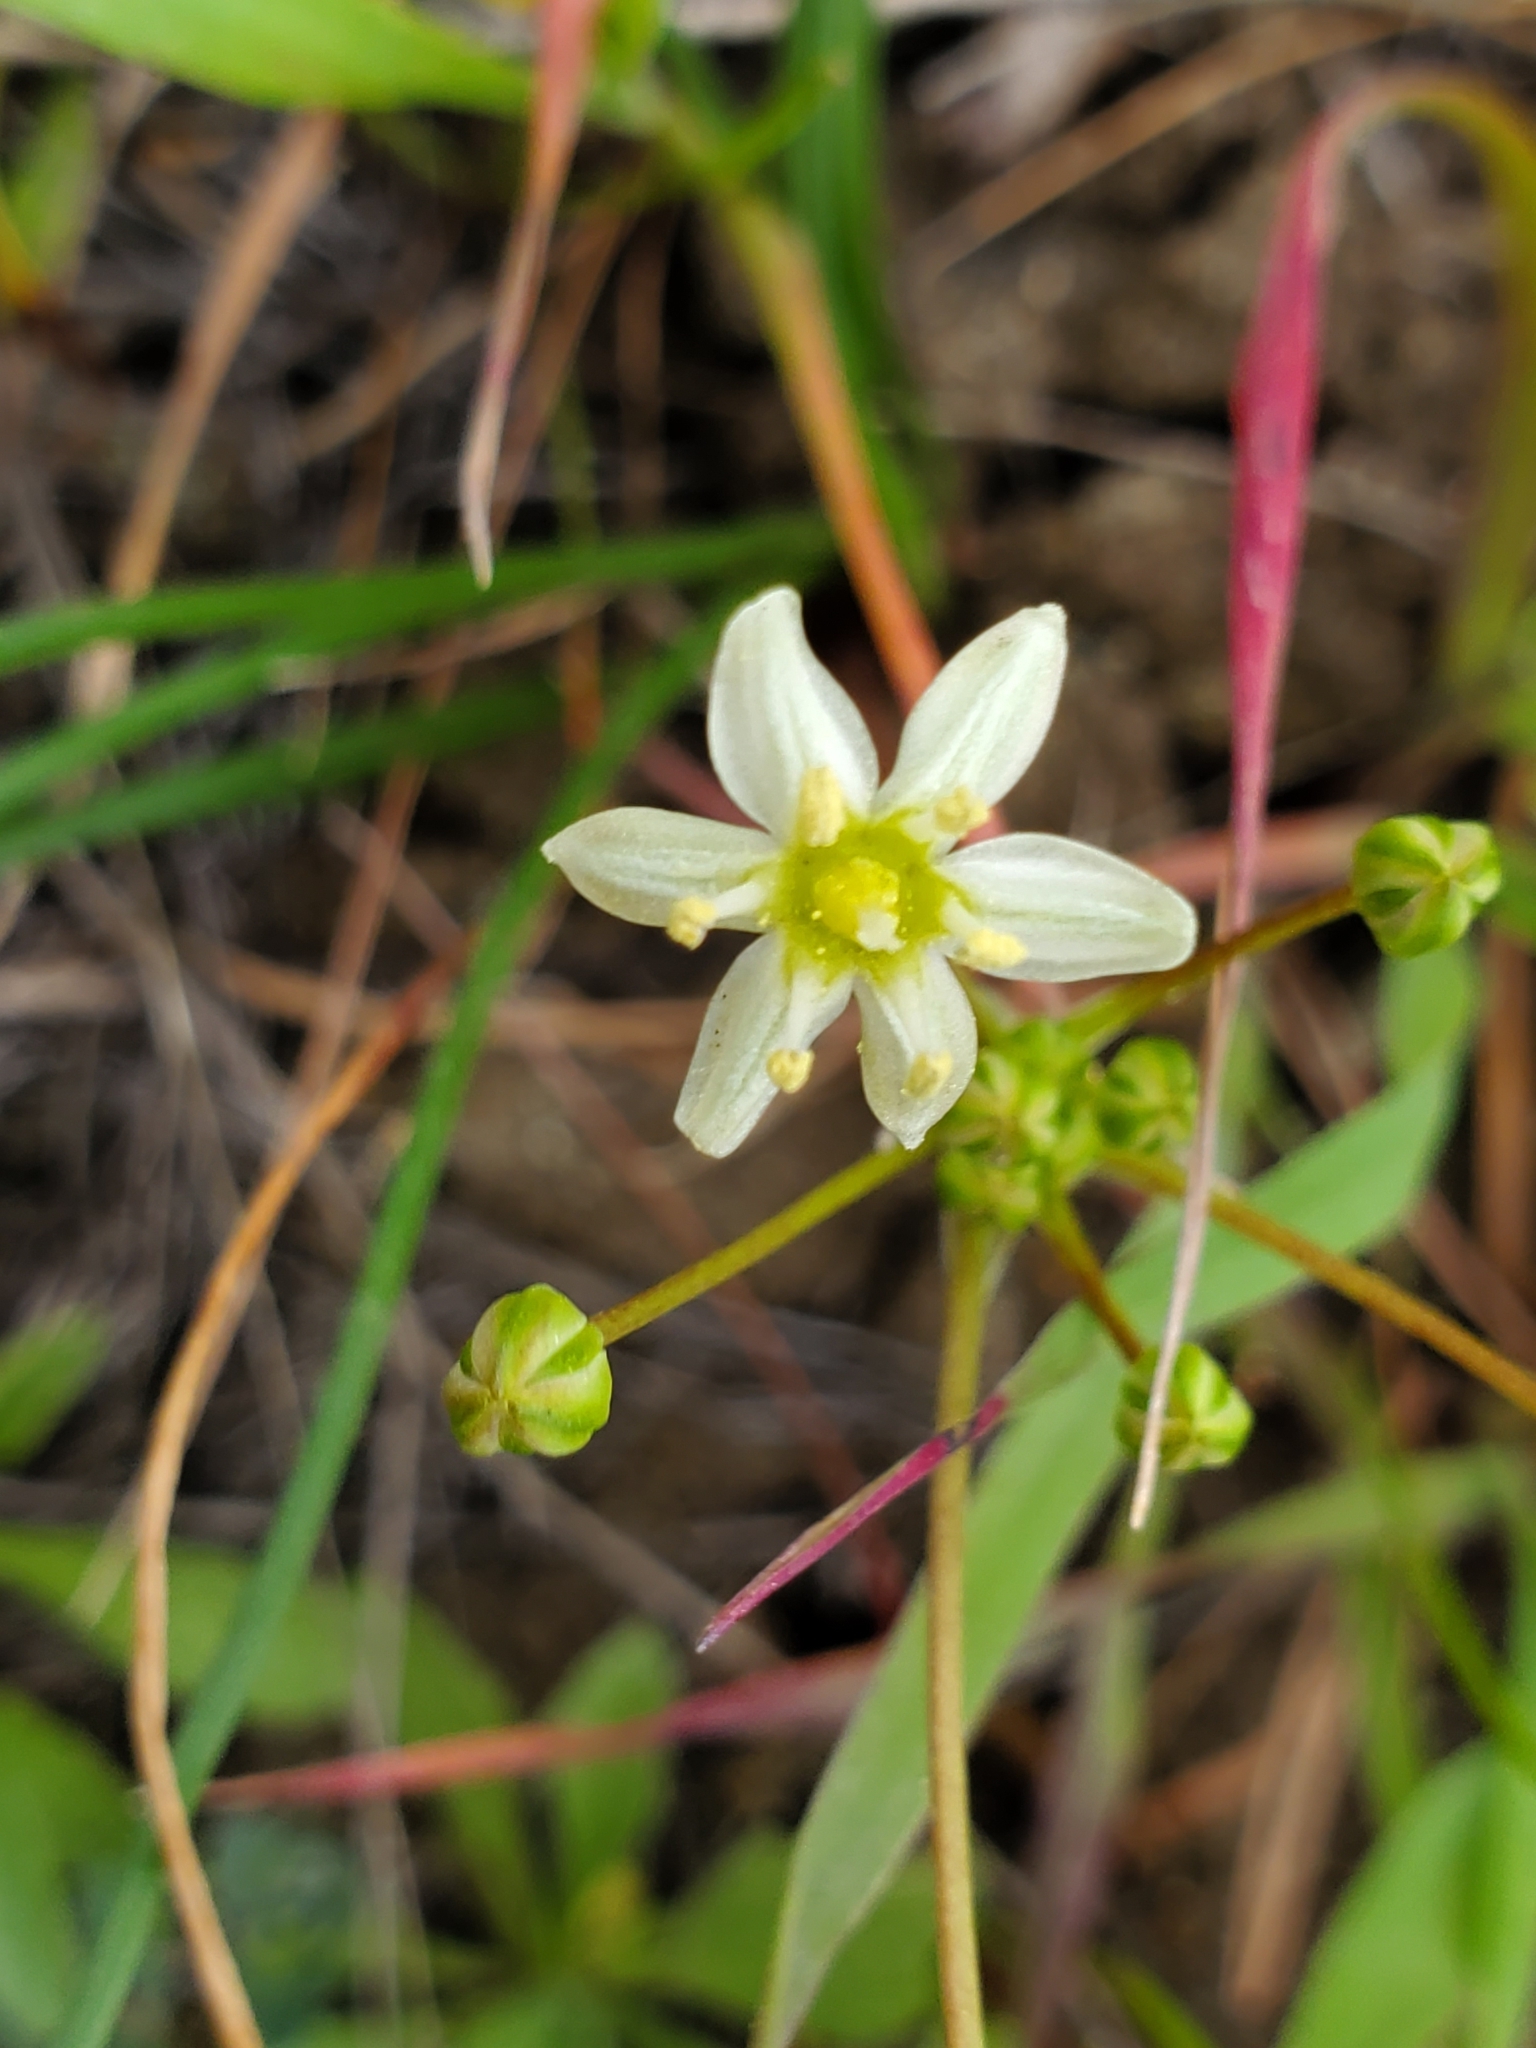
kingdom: Plantae
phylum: Tracheophyta
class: Liliopsida
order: Asparagales
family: Asparagaceae
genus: Muilla
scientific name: Muilla maritima
